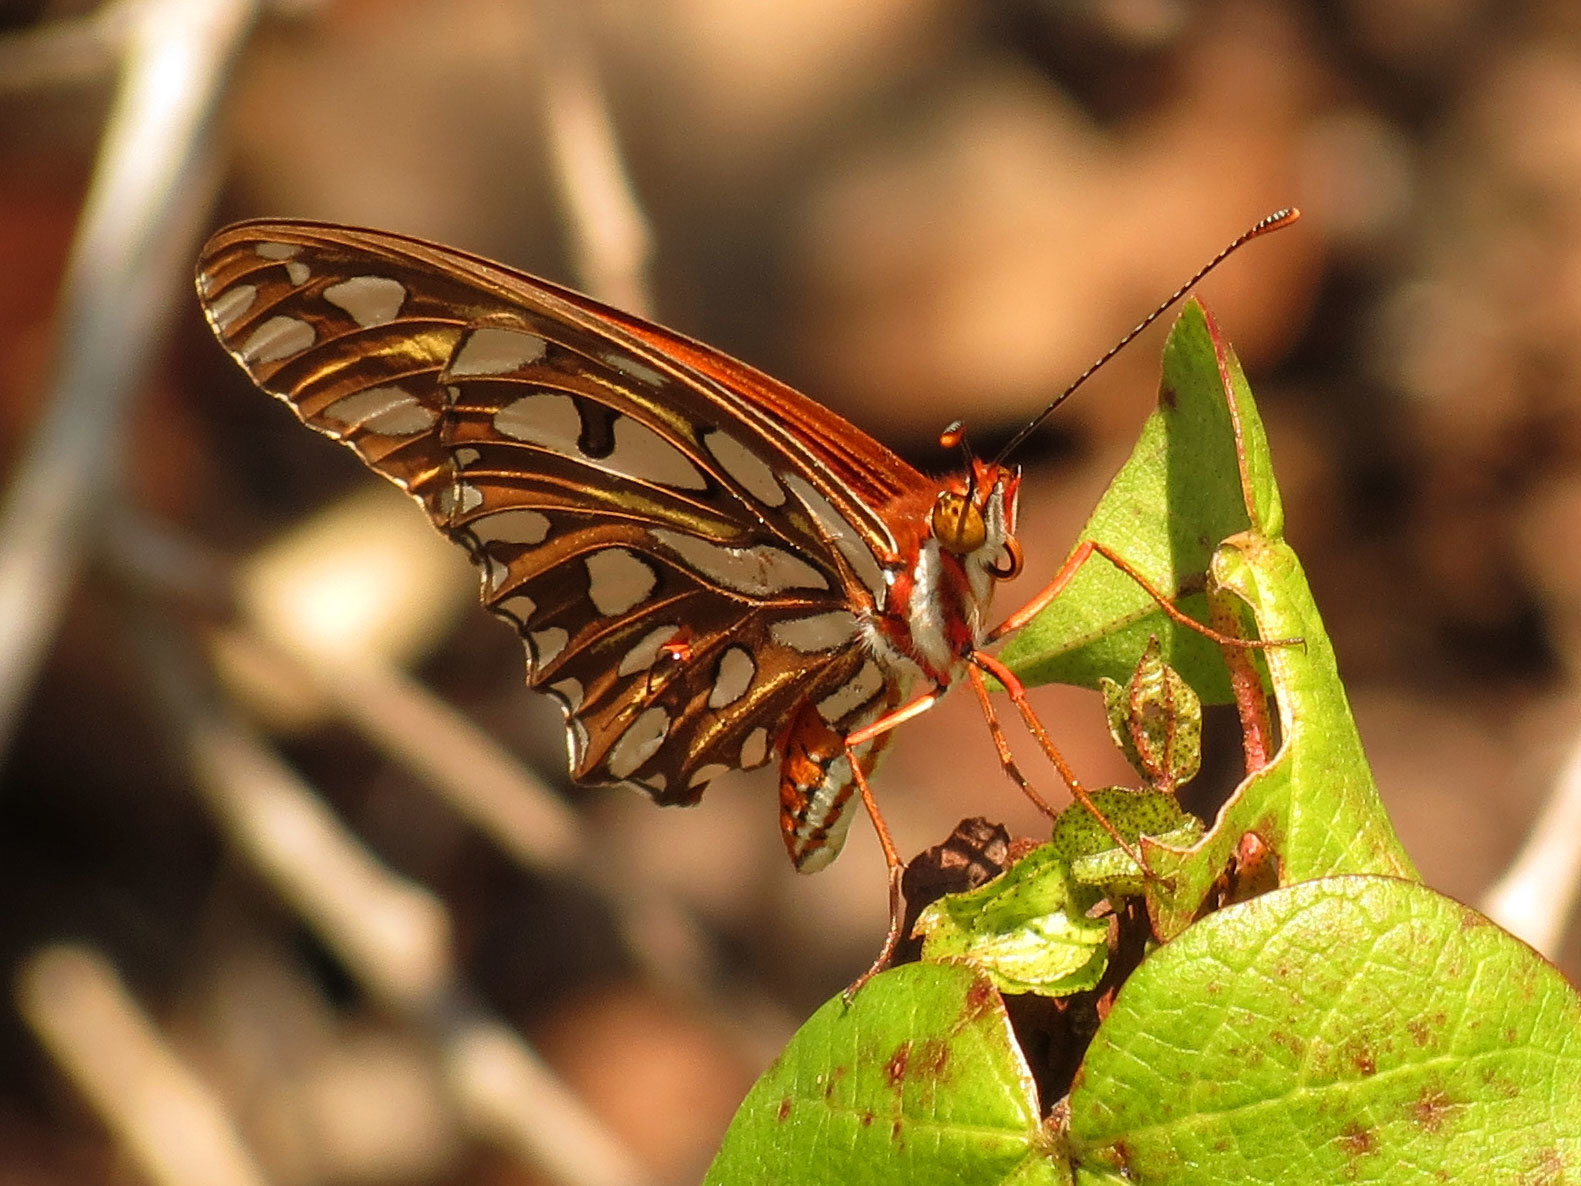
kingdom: Animalia
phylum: Arthropoda
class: Insecta
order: Lepidoptera
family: Nymphalidae
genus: Dione
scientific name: Dione vanillae
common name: Gulf fritillary
